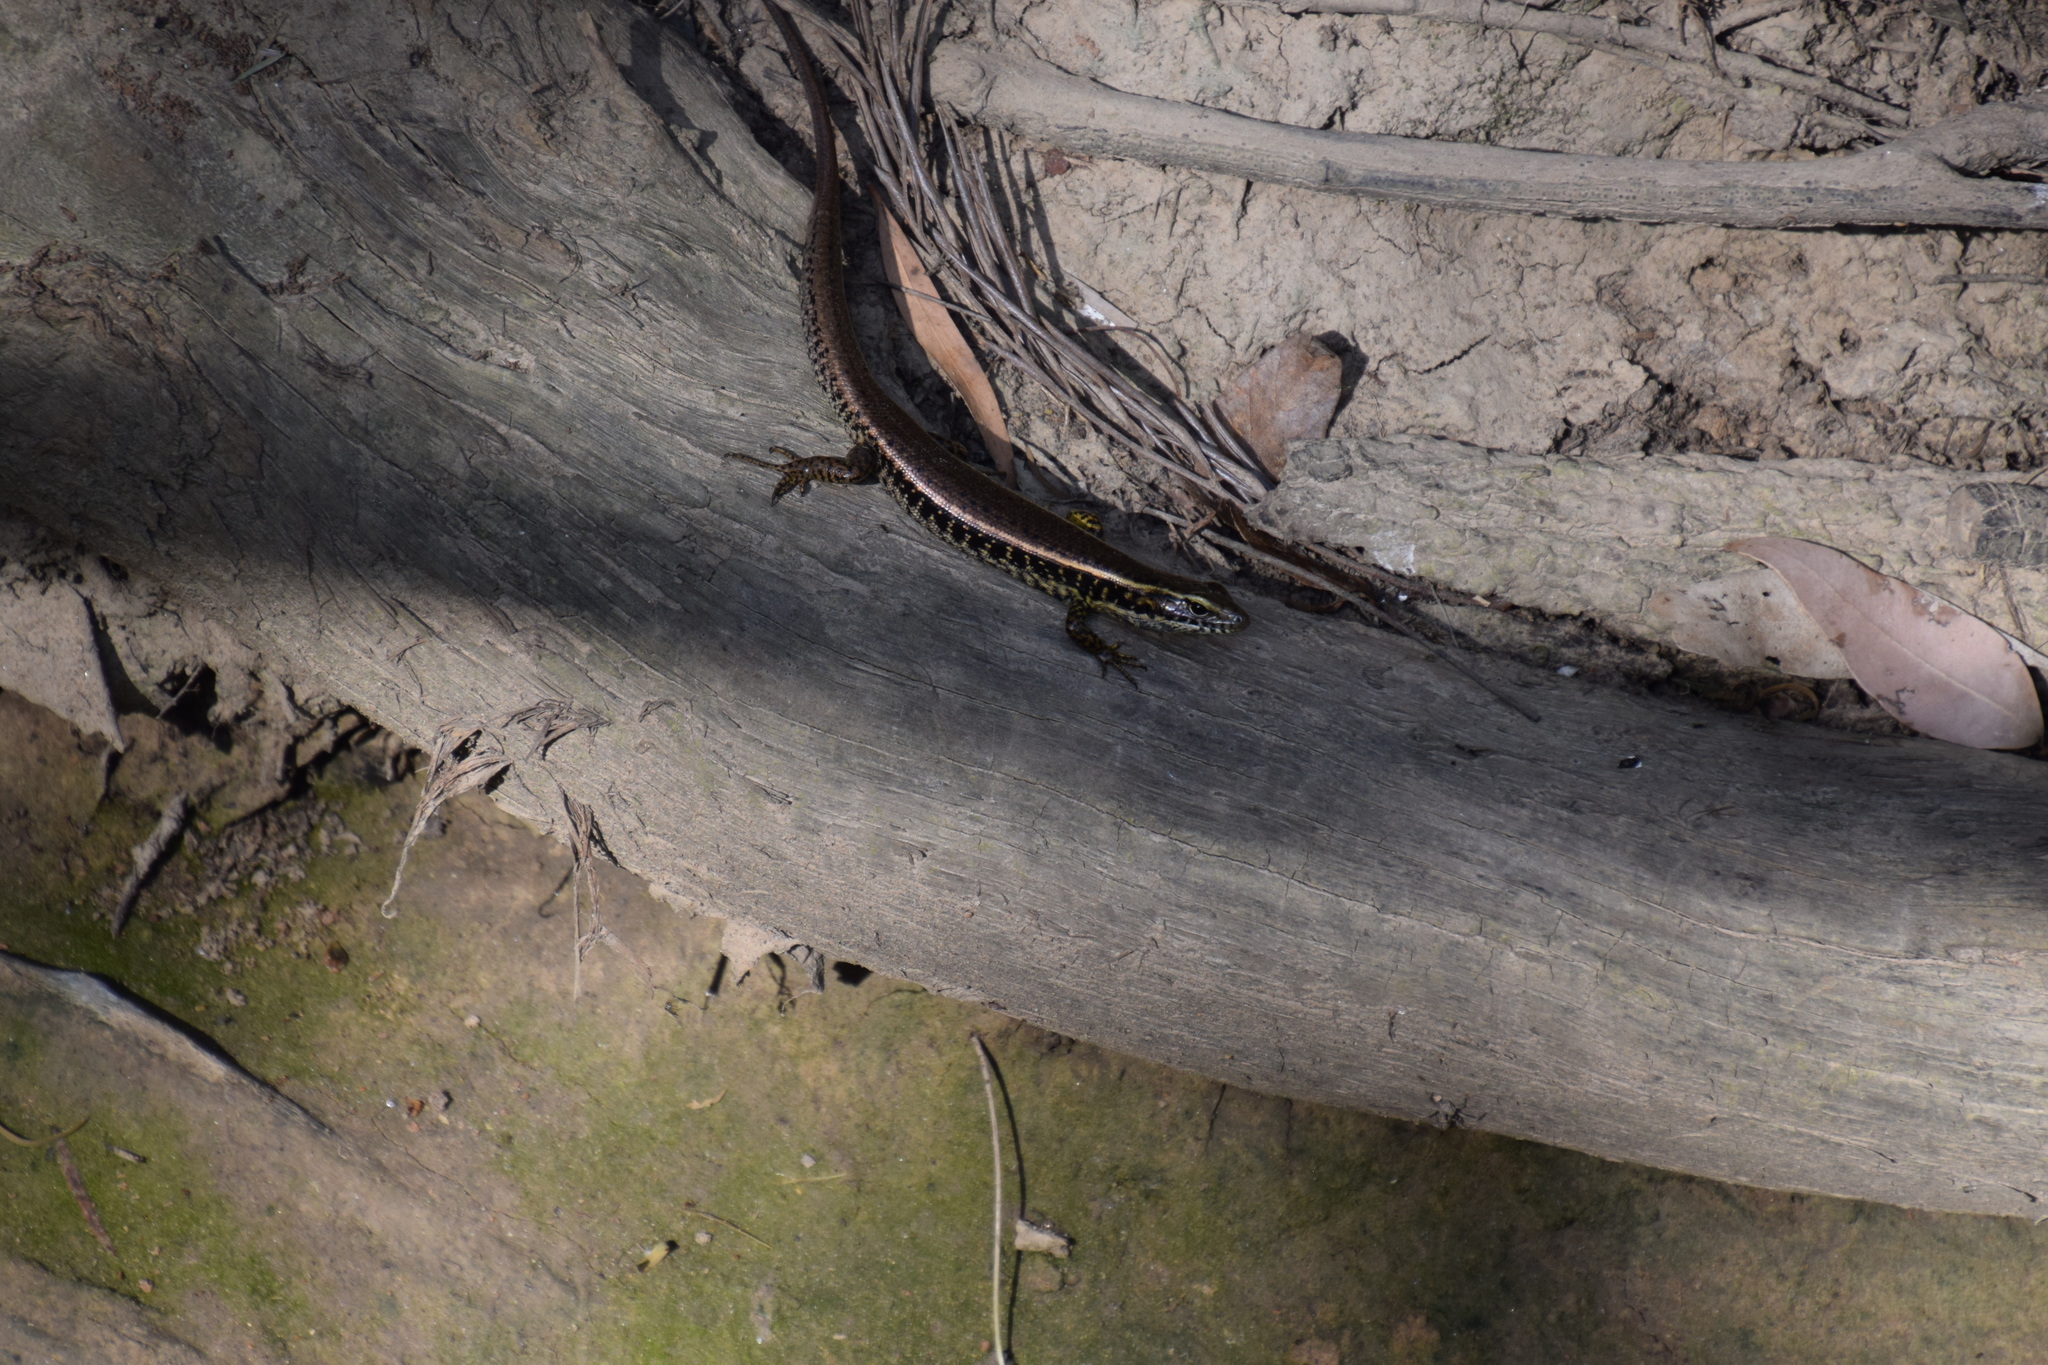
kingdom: Animalia
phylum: Chordata
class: Squamata
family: Scincidae
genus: Eulamprus
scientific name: Eulamprus quoyii
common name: Eastern water skink
